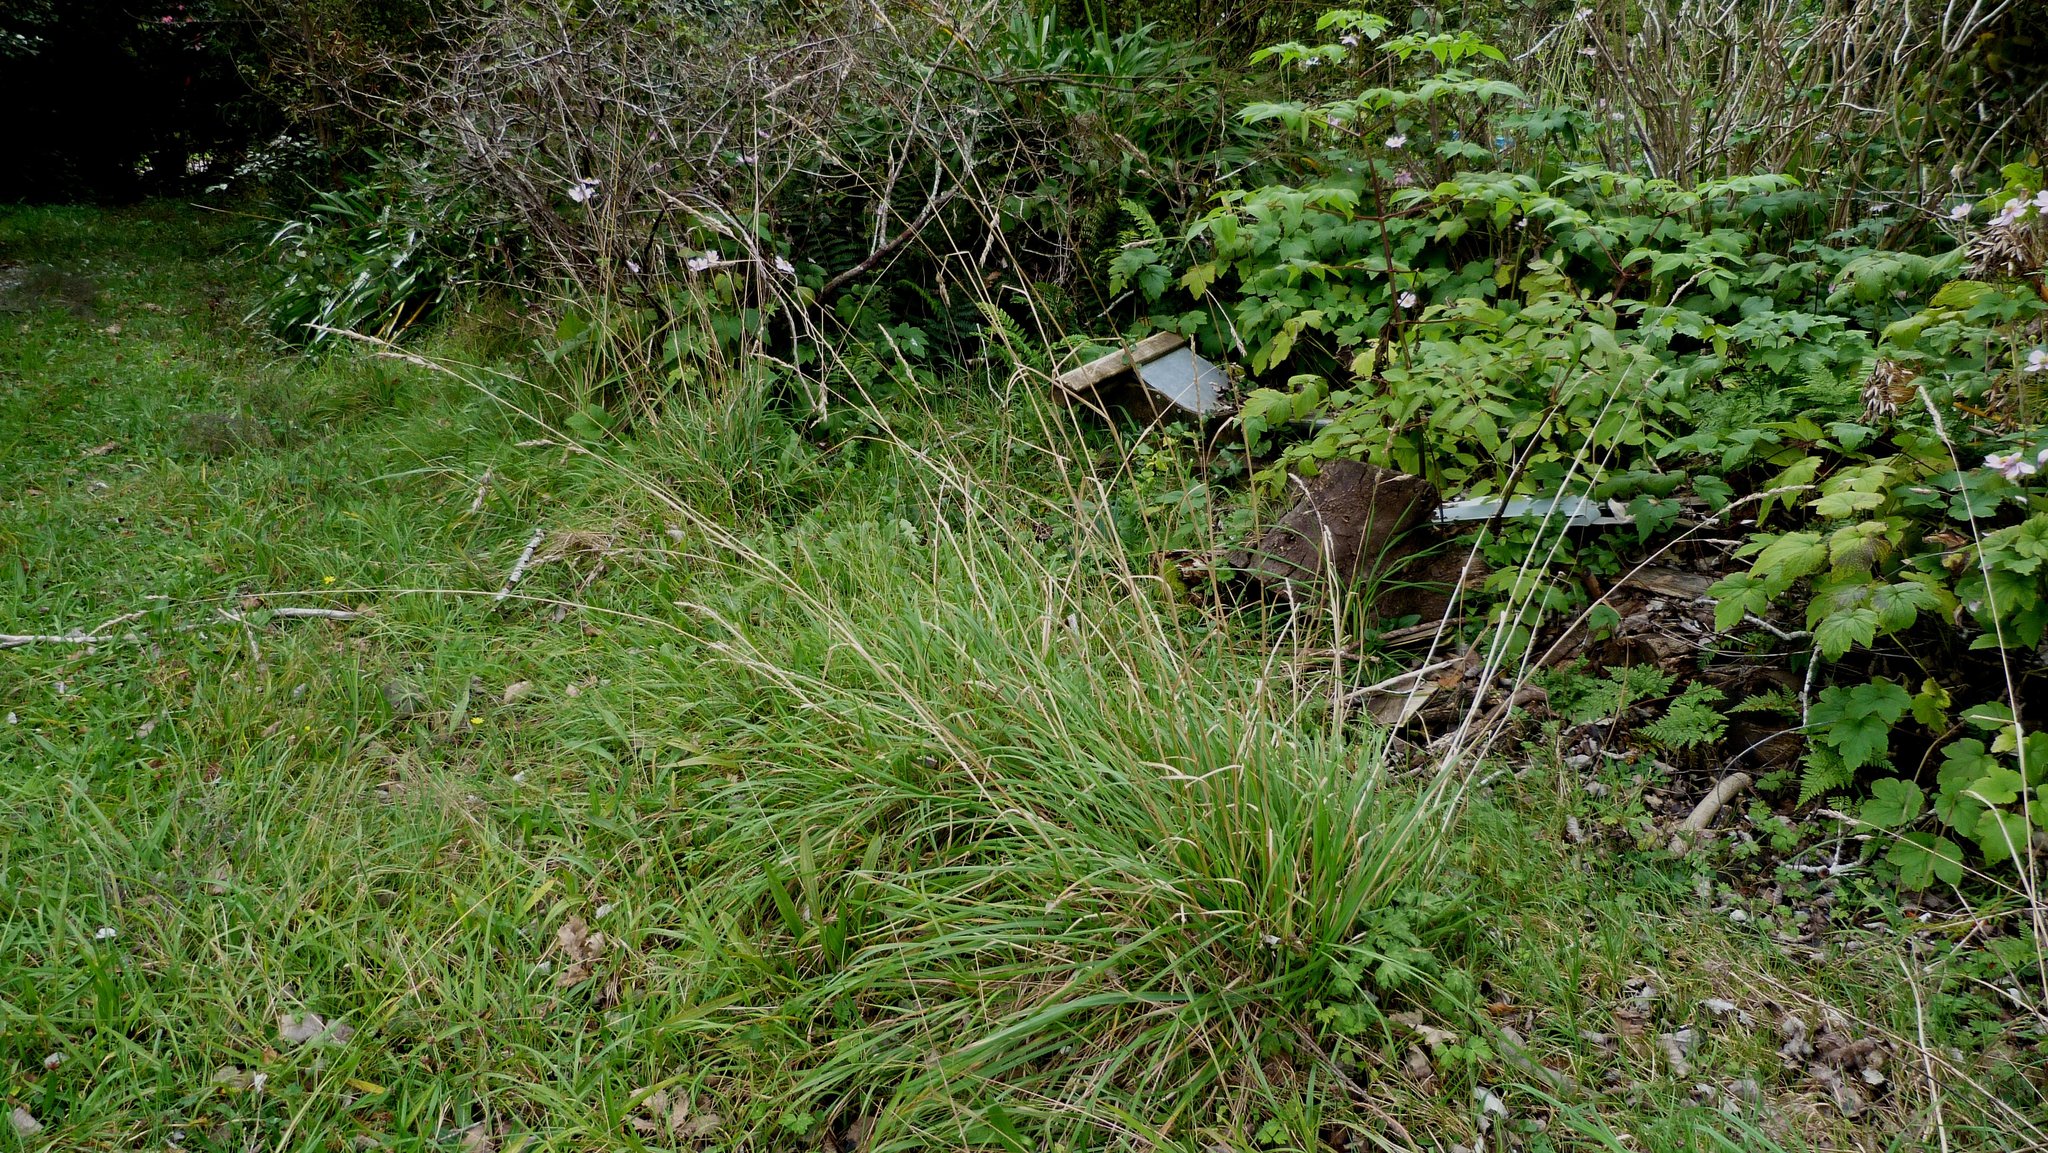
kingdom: Plantae
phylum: Tracheophyta
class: Liliopsida
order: Poales
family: Poaceae
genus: Dactylis
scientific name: Dactylis glomerata
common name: Orchardgrass
